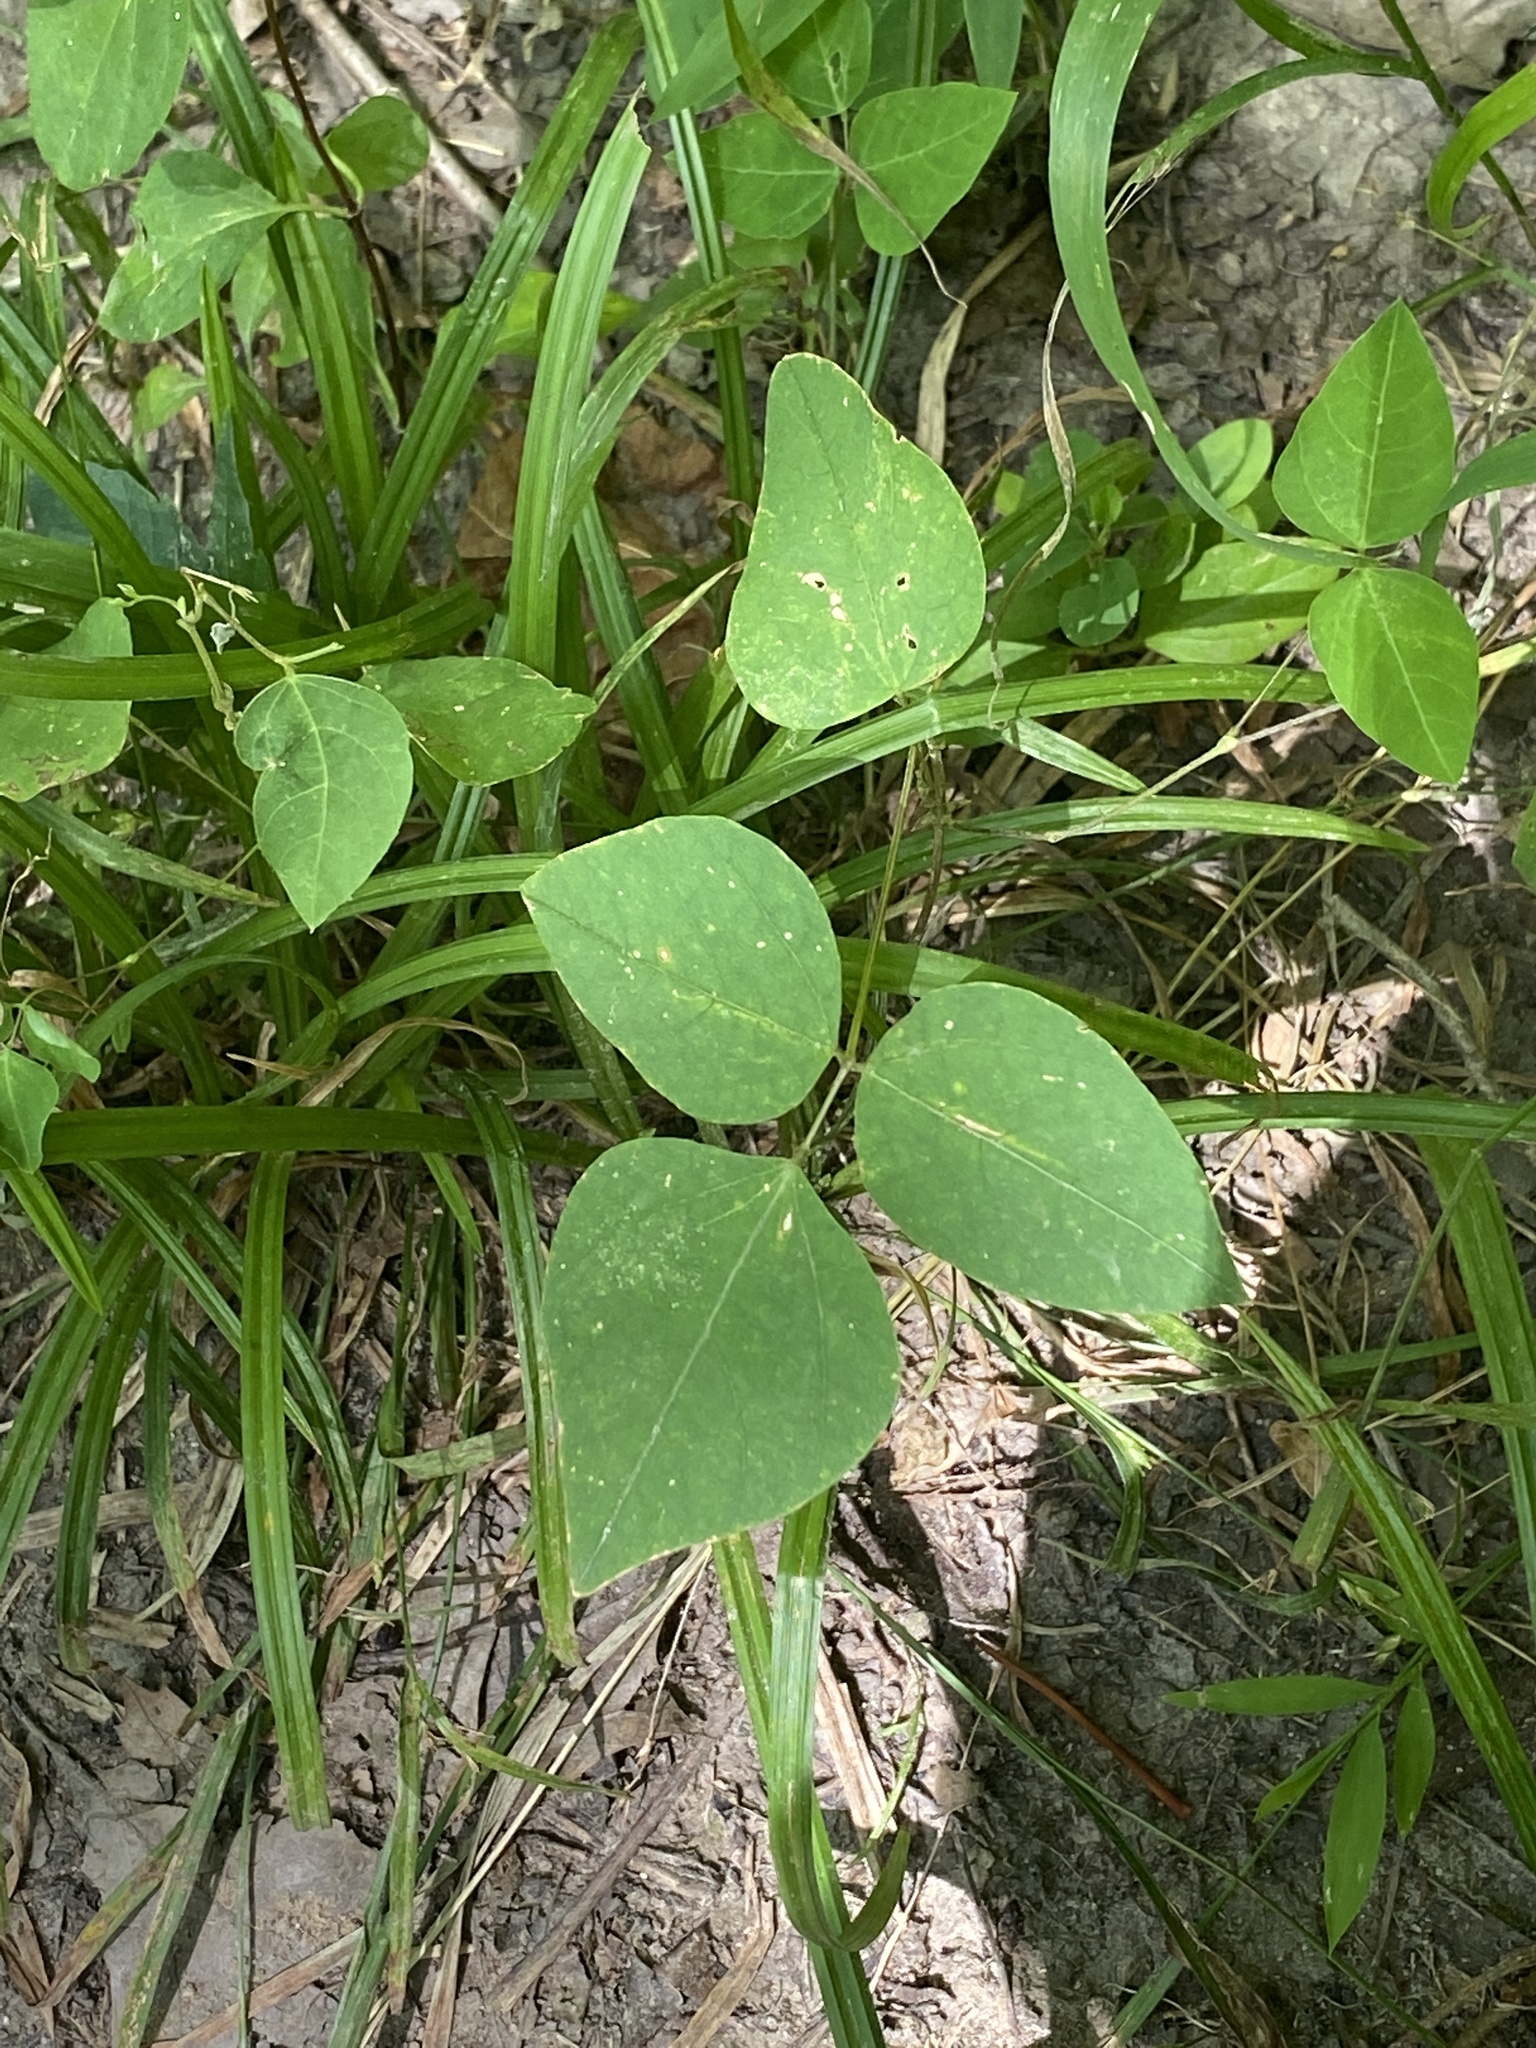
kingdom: Plantae
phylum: Tracheophyta
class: Magnoliopsida
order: Fabales
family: Fabaceae
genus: Amphicarpaea
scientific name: Amphicarpaea bracteata
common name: American hog peanut
